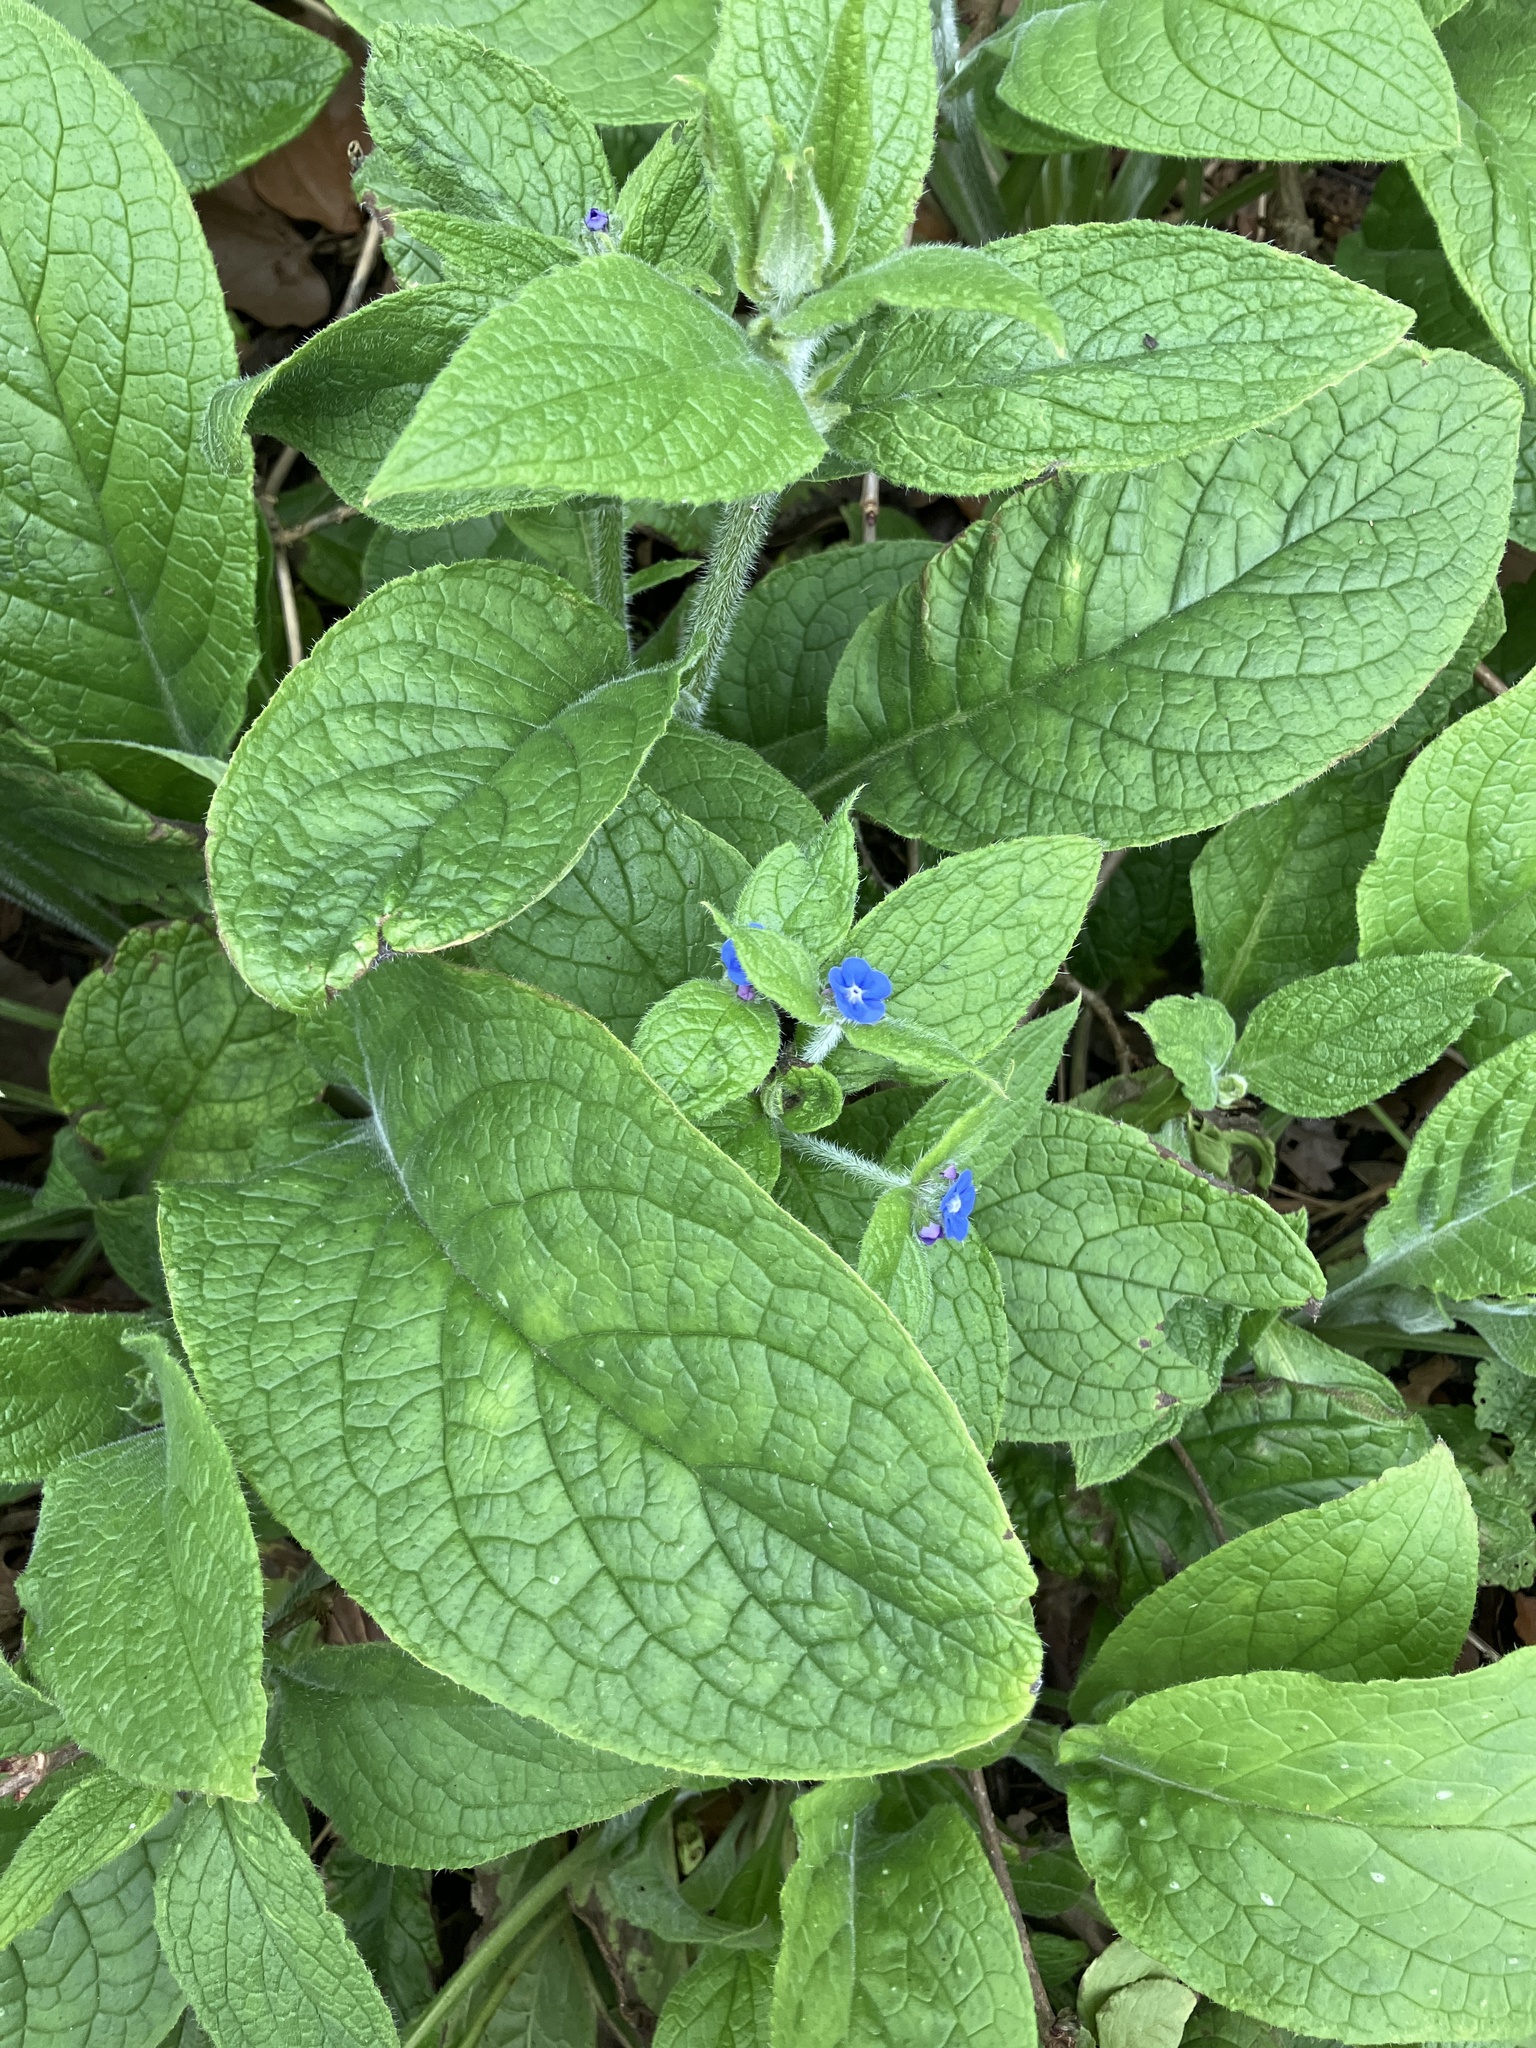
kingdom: Plantae
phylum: Tracheophyta
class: Magnoliopsida
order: Boraginales
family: Boraginaceae
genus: Pentaglottis
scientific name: Pentaglottis sempervirens
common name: Green alkanet
